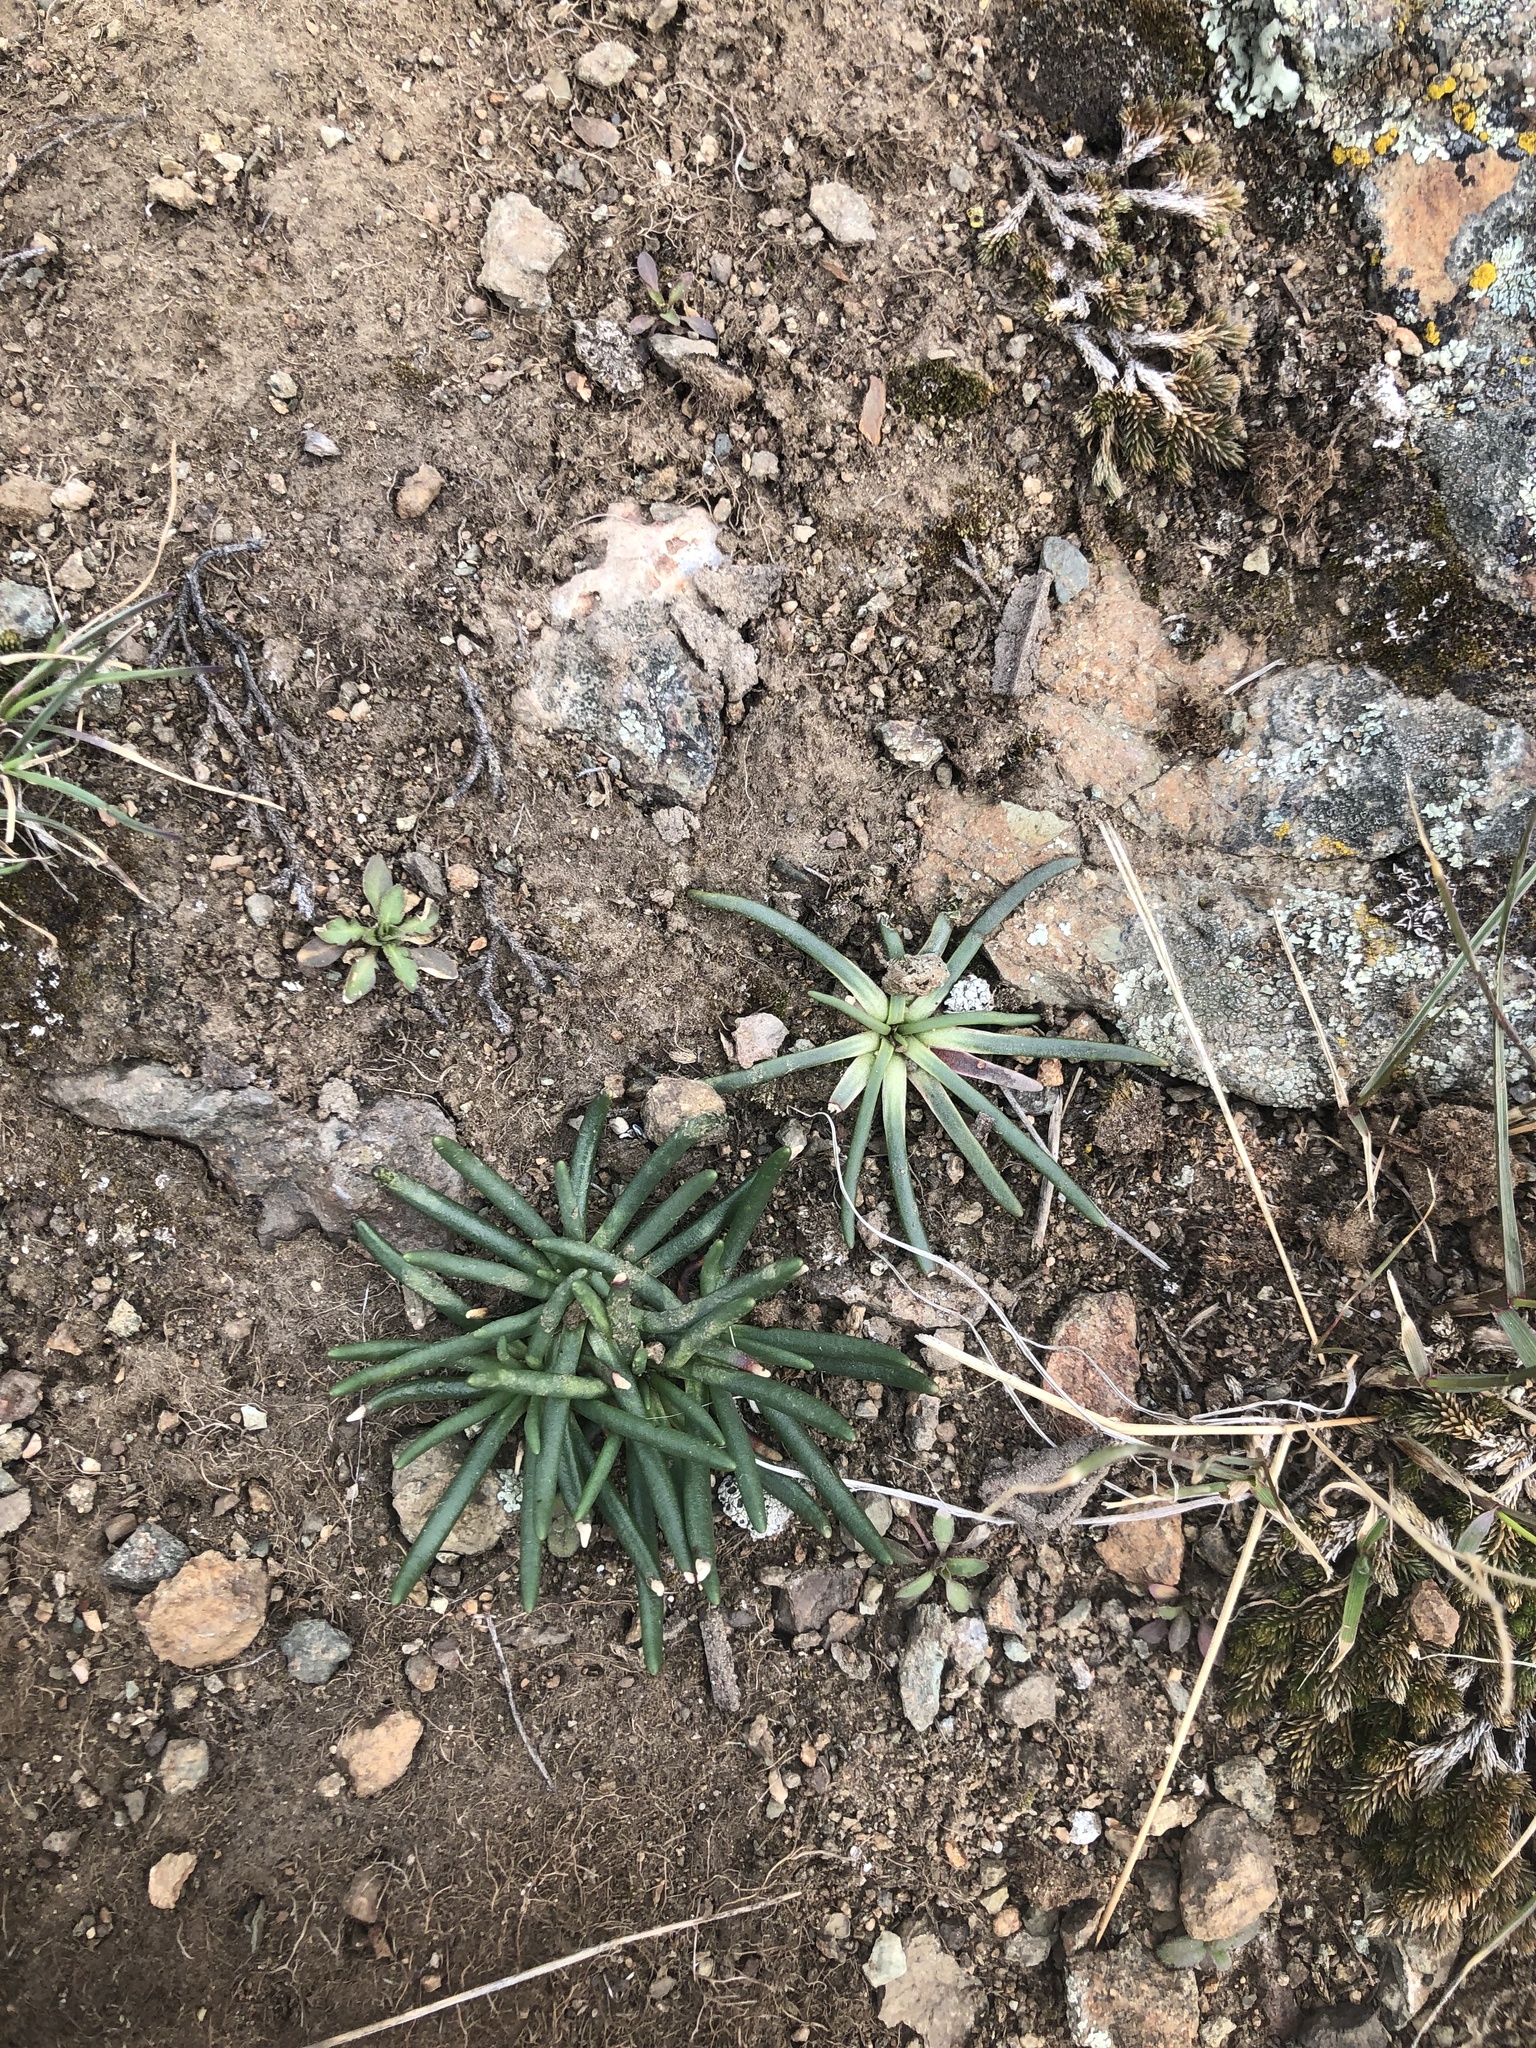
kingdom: Plantae
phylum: Tracheophyta
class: Magnoliopsida
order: Caryophyllales
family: Montiaceae
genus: Lewisia
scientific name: Lewisia rediviva
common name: Bitter-root
